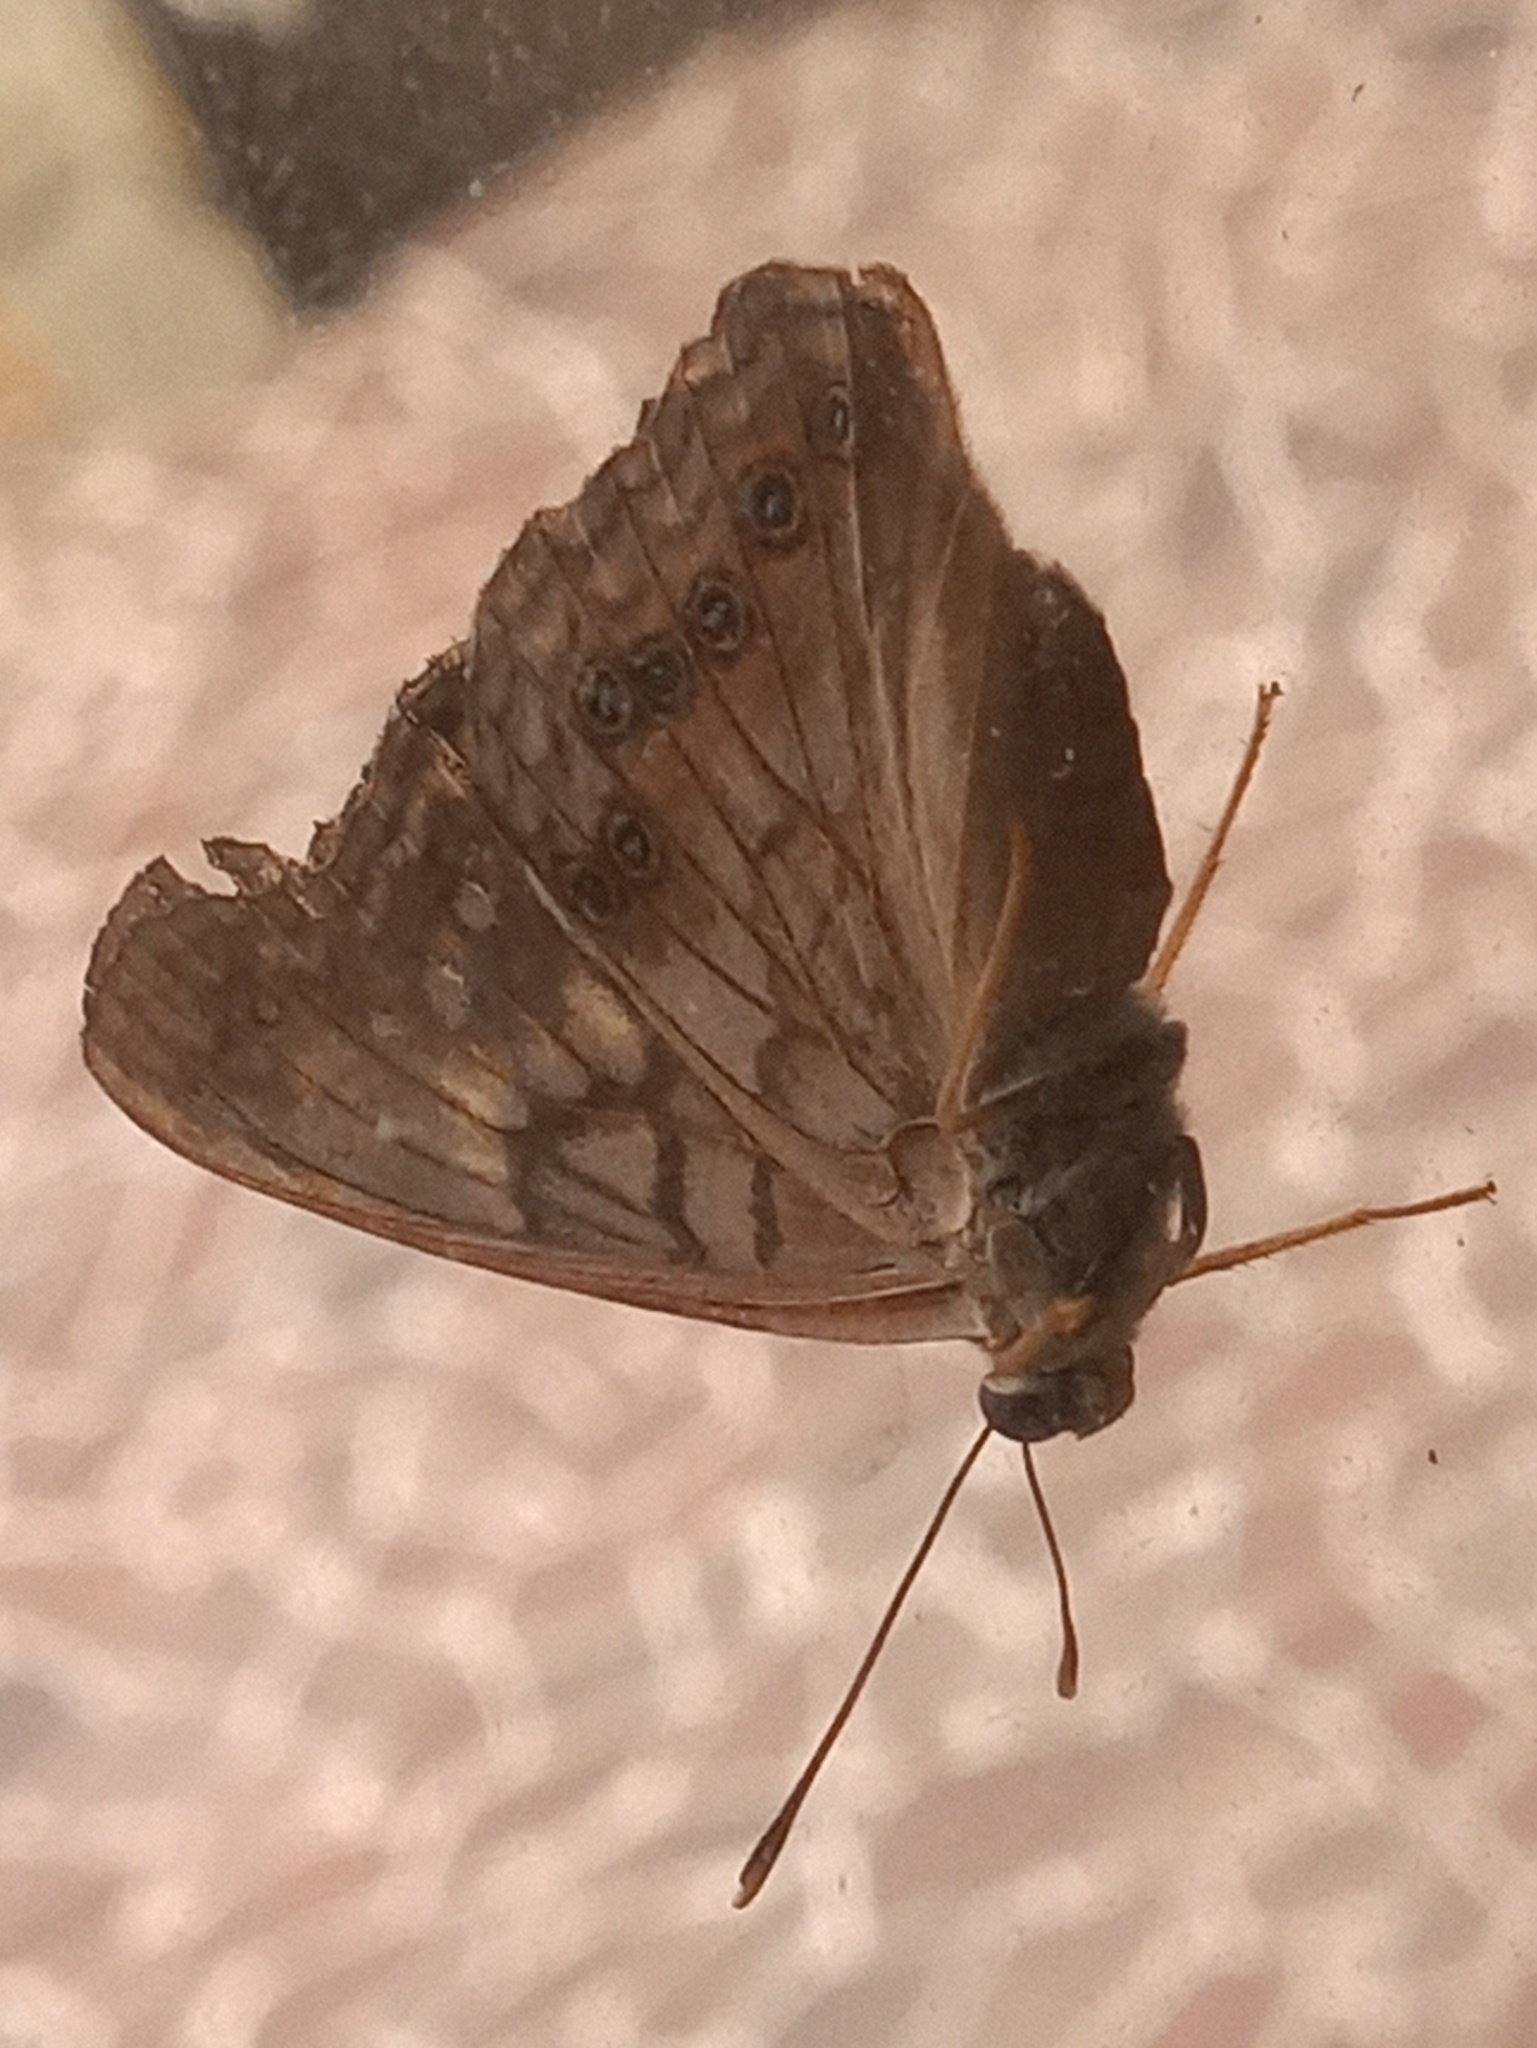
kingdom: Animalia
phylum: Arthropoda
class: Insecta
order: Lepidoptera
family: Nymphalidae
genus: Asterocampa
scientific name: Asterocampa clyton
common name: Tawny emperor
